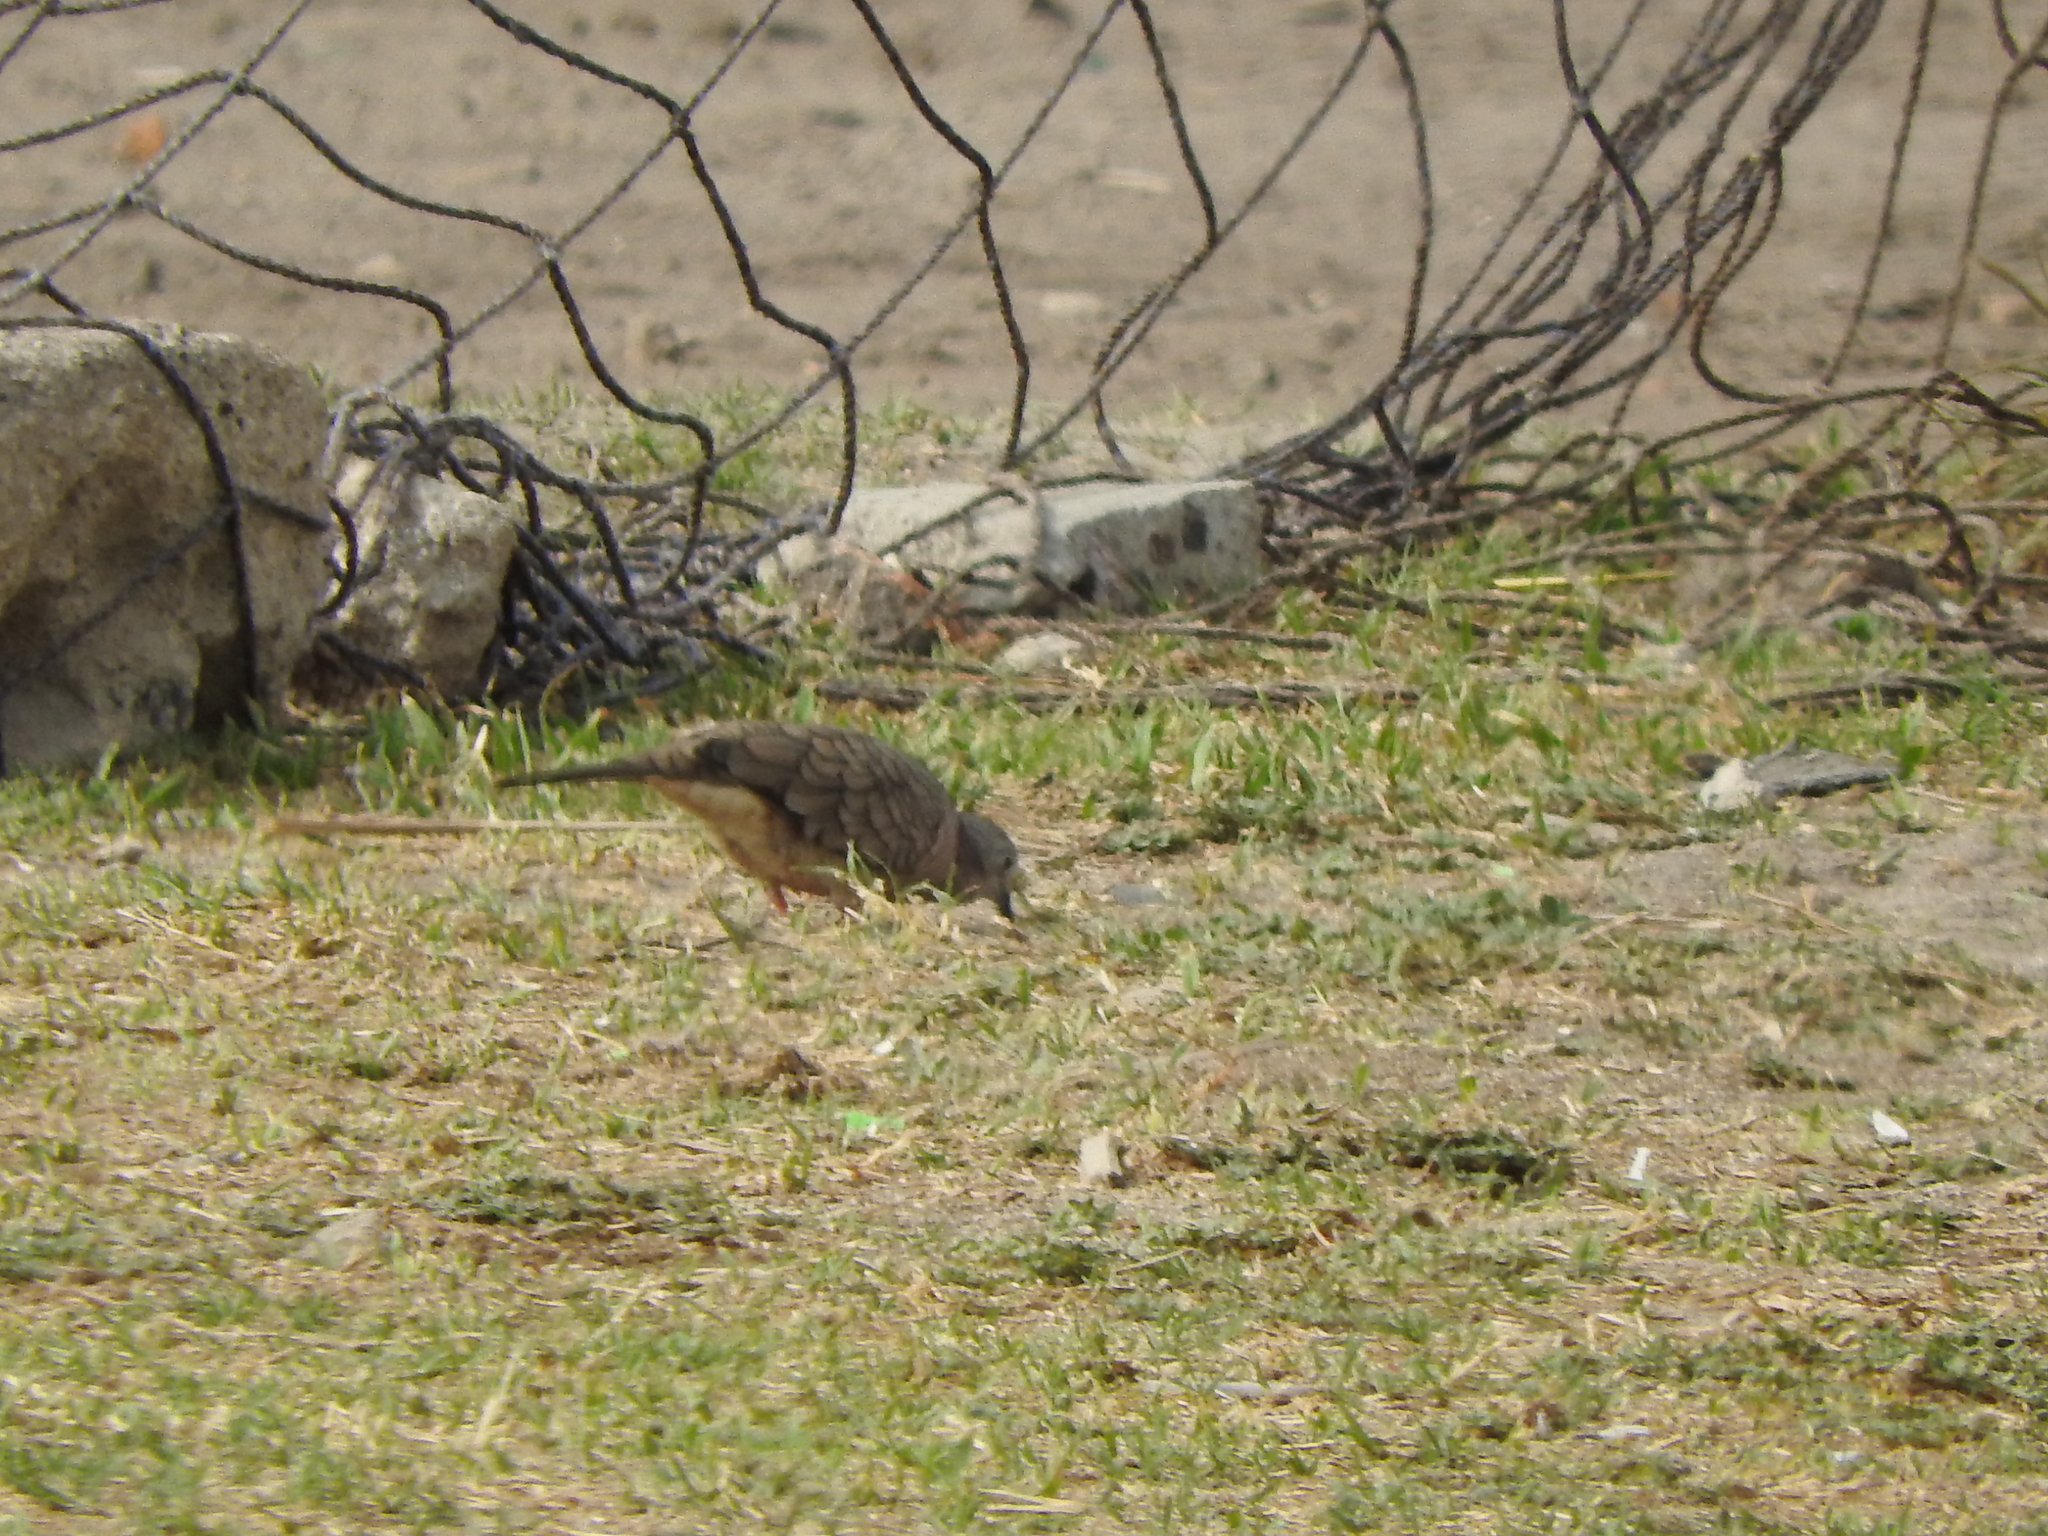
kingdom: Animalia
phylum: Chordata
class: Aves
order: Columbiformes
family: Columbidae
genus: Columbina
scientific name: Columbina inca
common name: Inca dove
